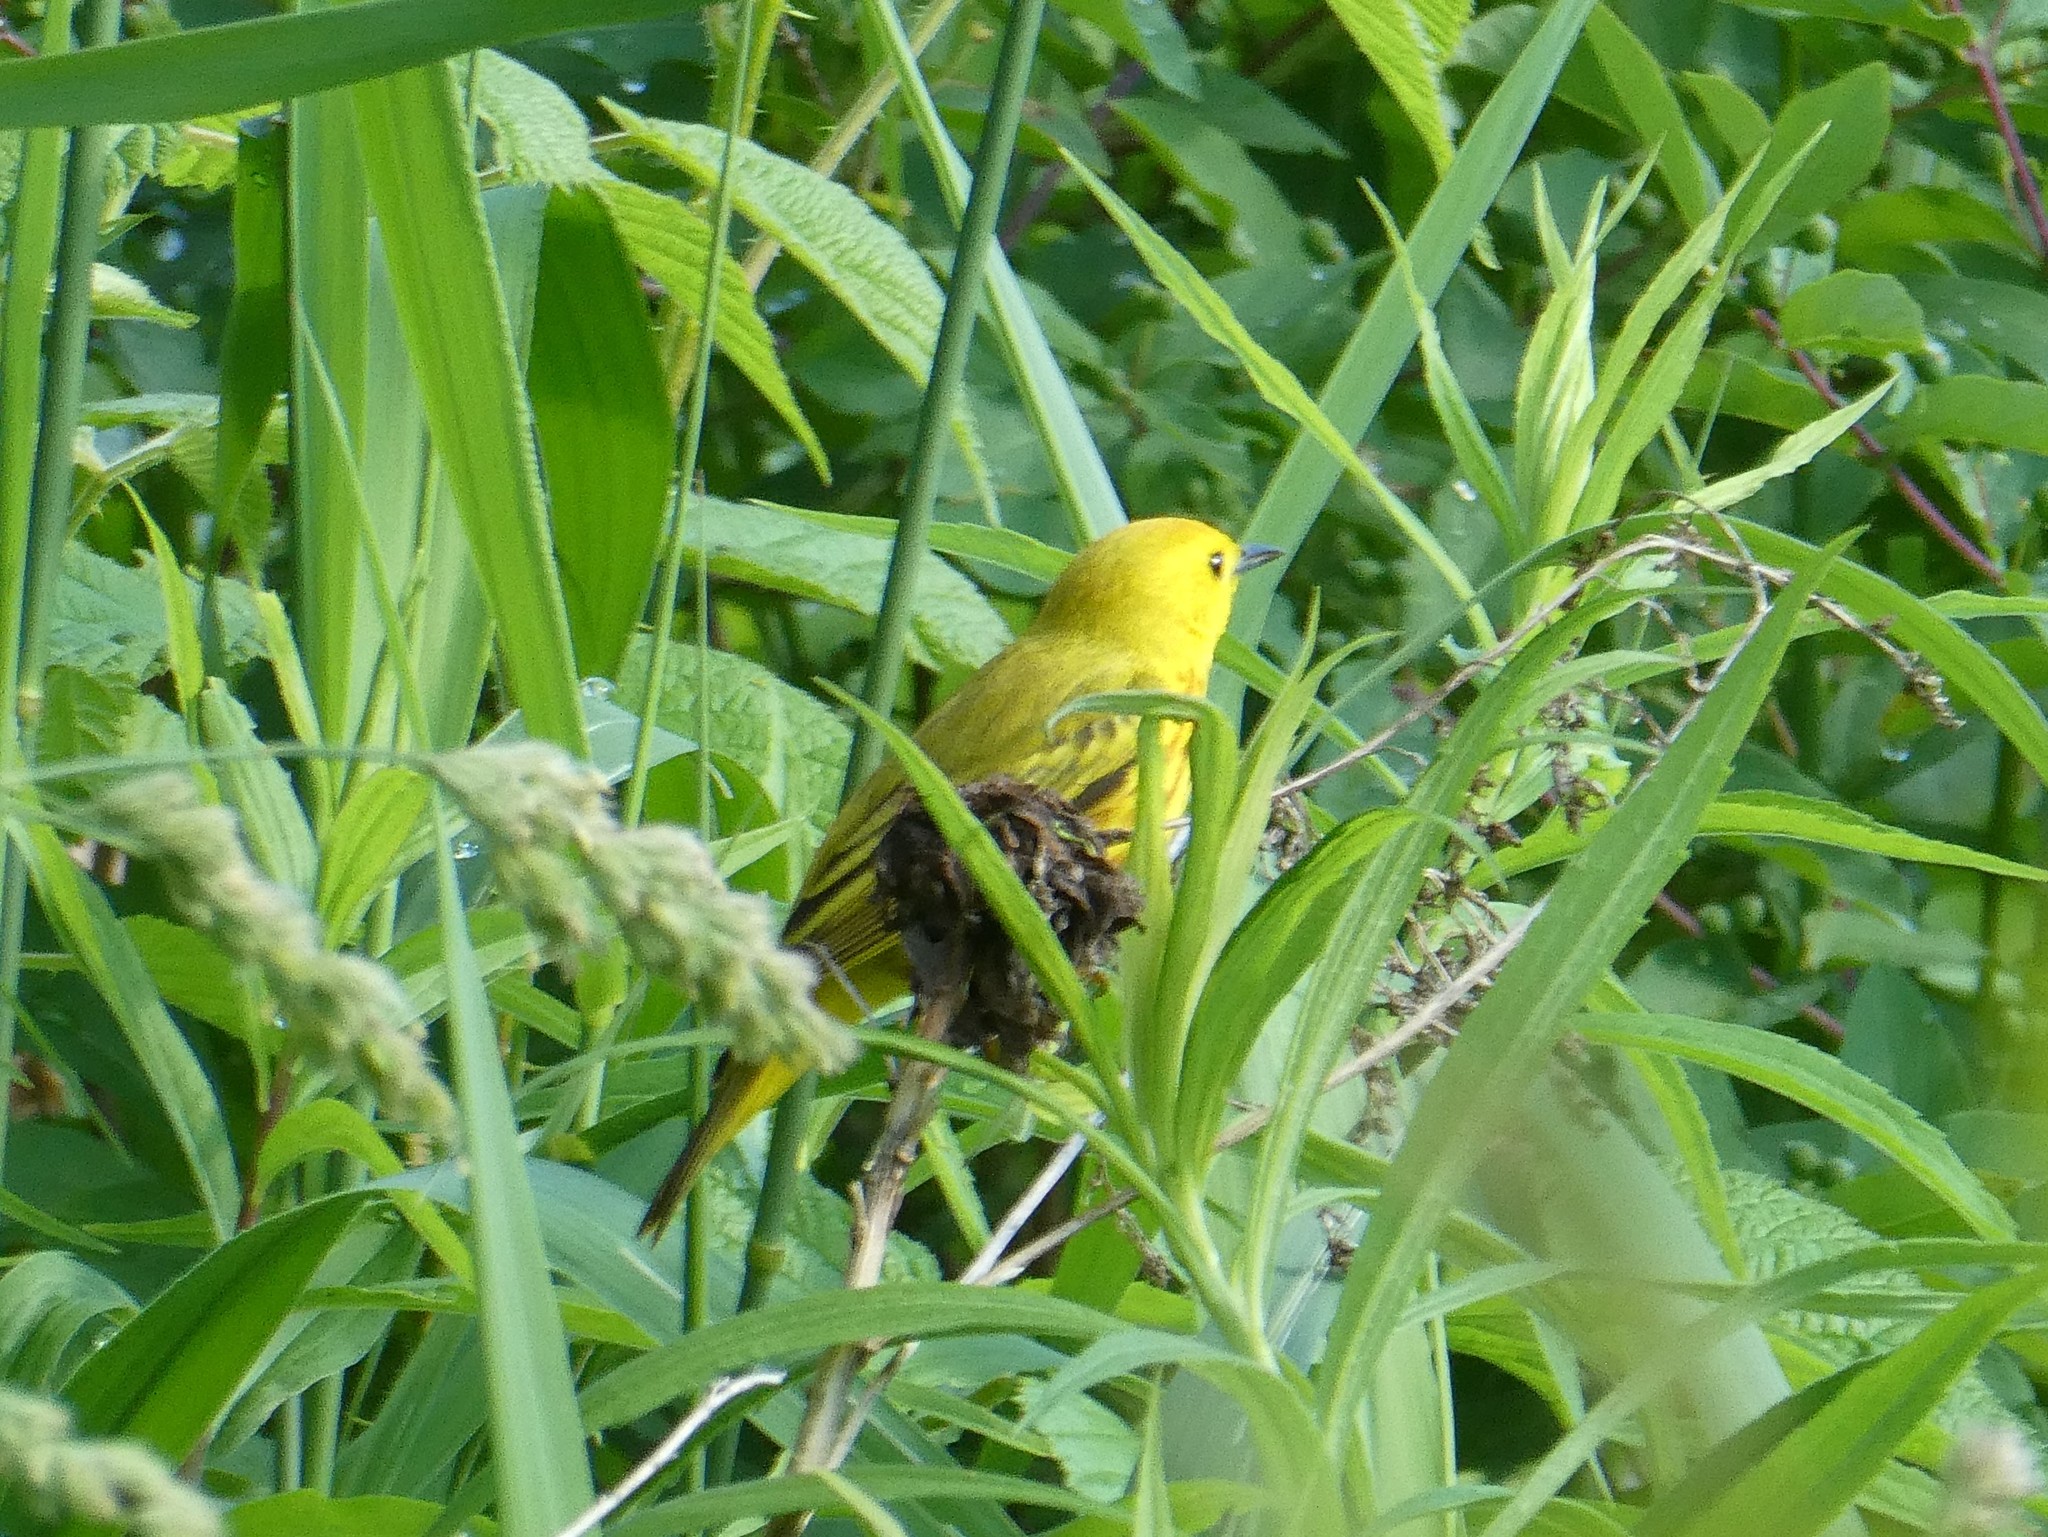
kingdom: Animalia
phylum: Chordata
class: Aves
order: Passeriformes
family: Parulidae
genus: Setophaga
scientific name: Setophaga petechia
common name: Yellow warbler
